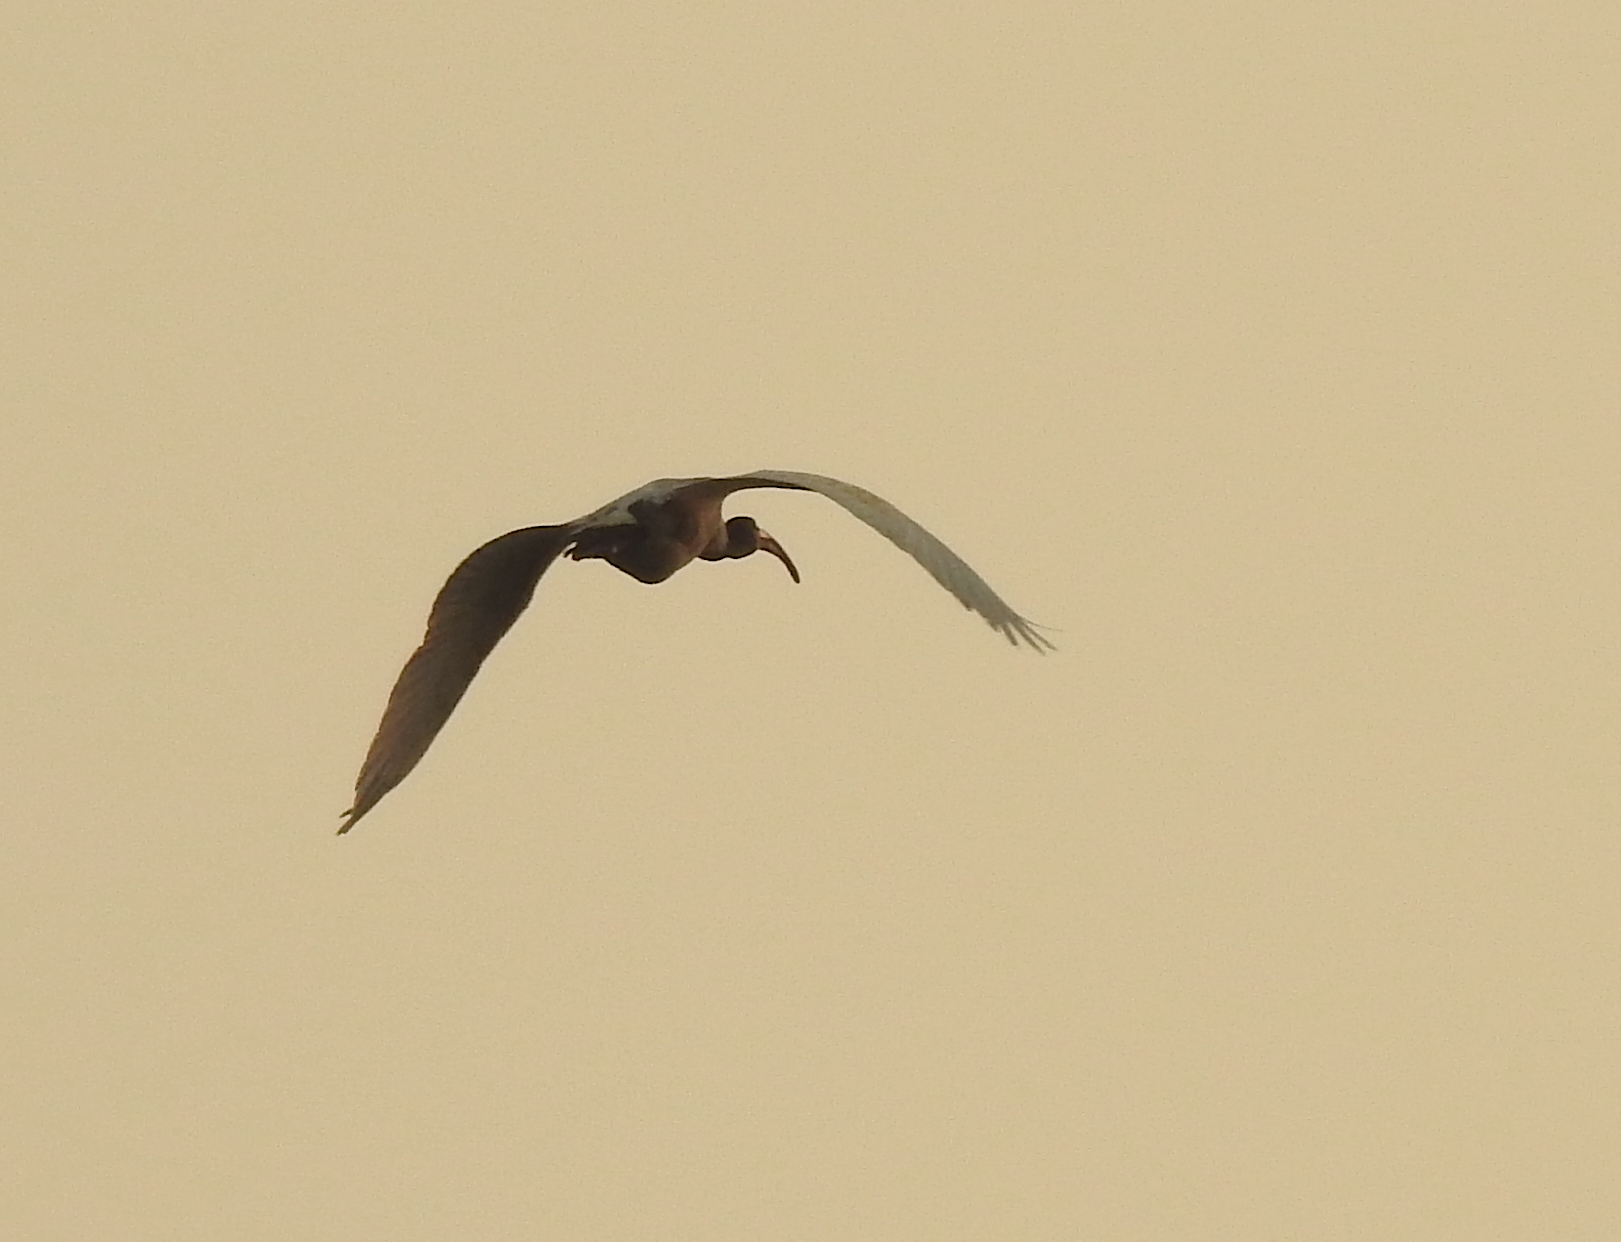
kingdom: Animalia
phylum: Chordata
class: Aves
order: Pelecaniformes
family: Threskiornithidae
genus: Plegadis
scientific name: Plegadis falcinellus
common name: Glossy ibis
